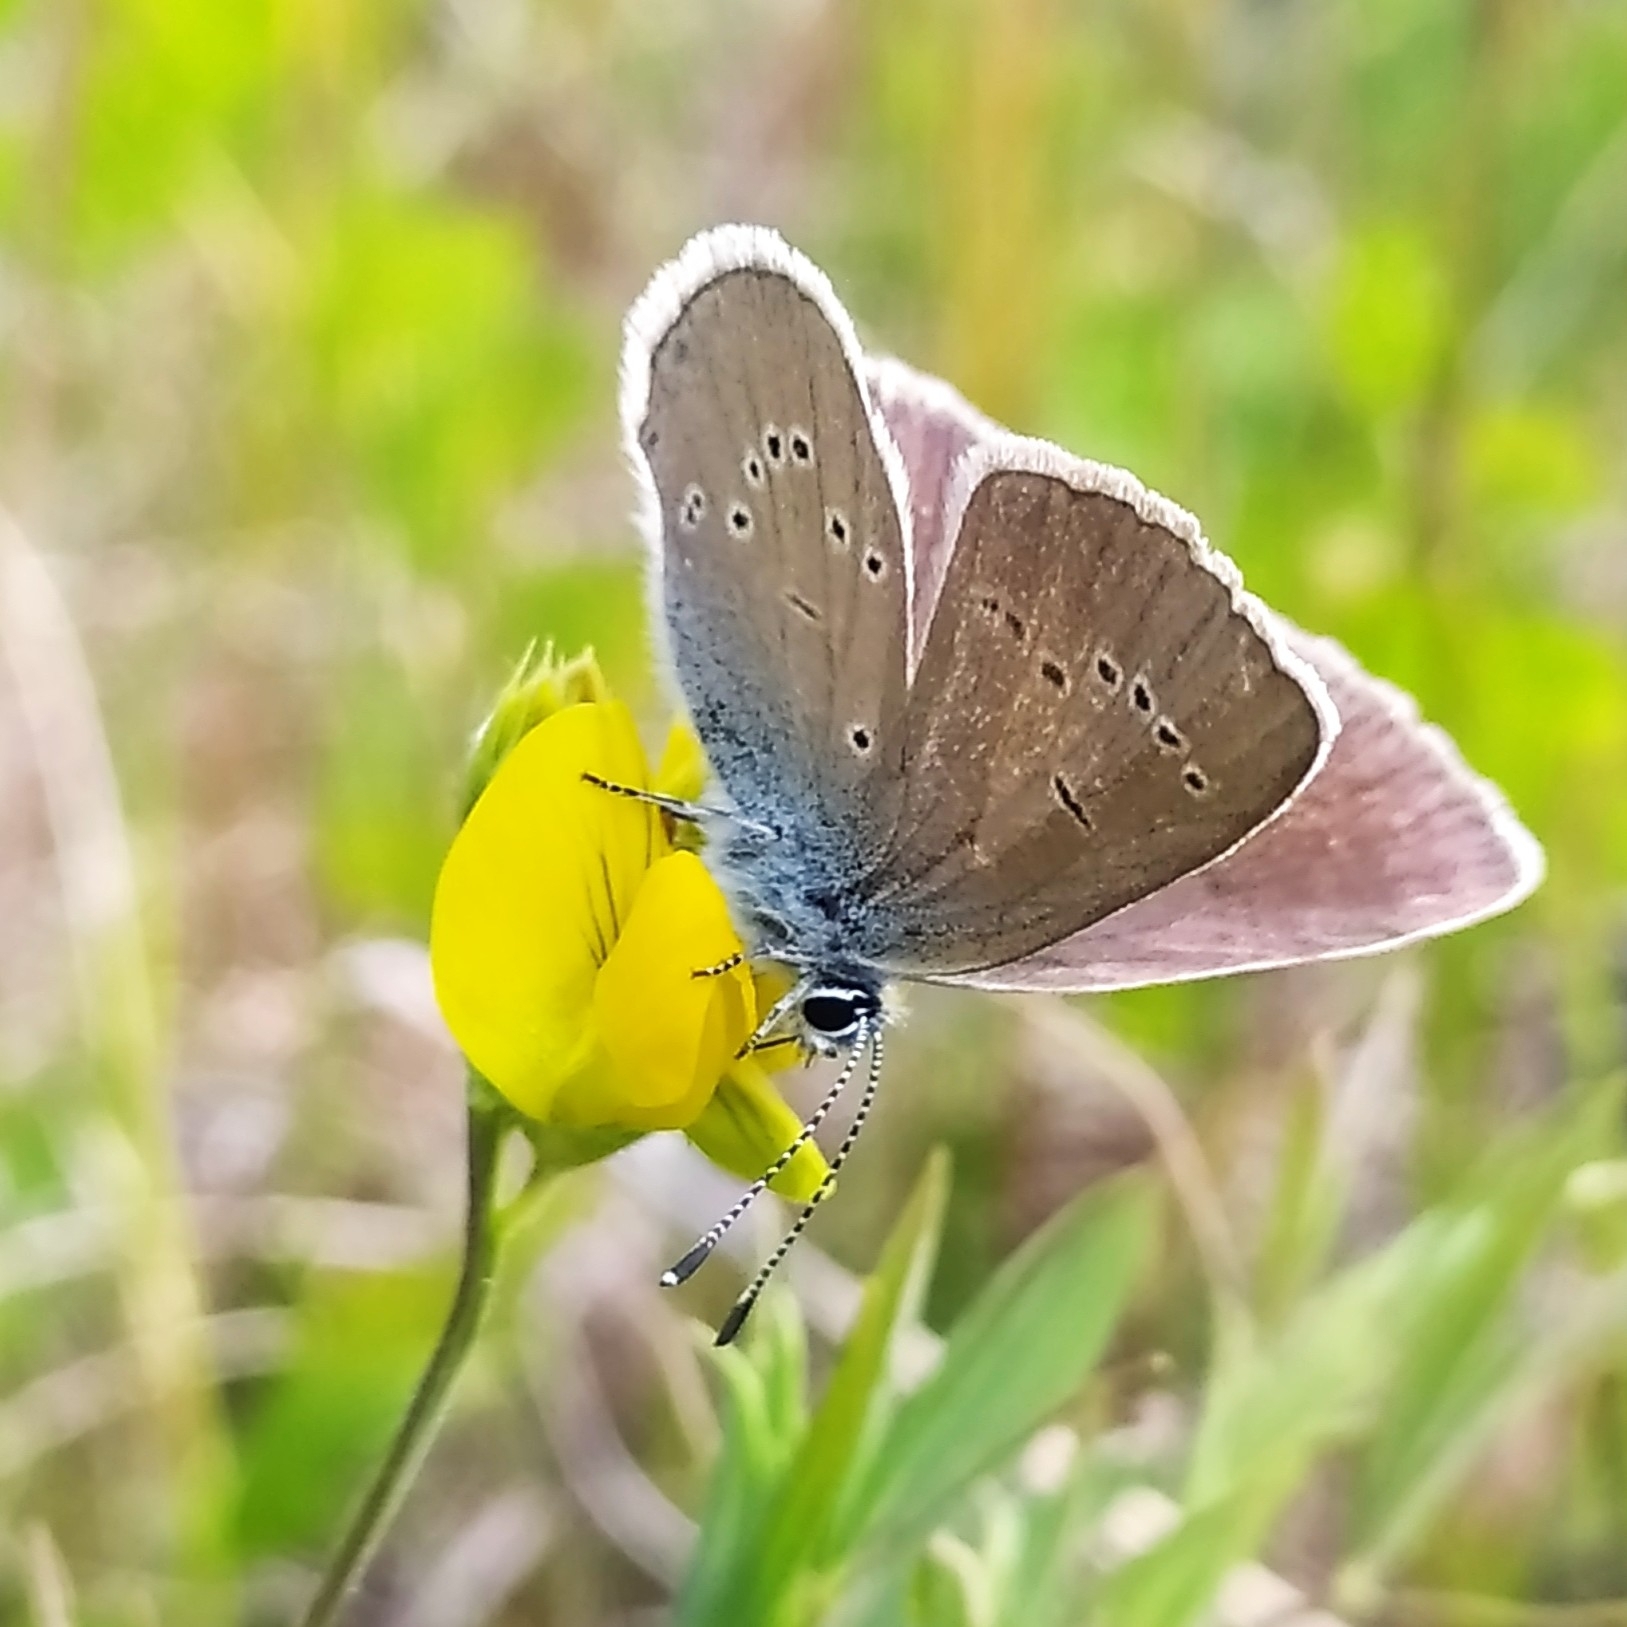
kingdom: Animalia
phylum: Arthropoda
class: Insecta
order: Lepidoptera
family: Lycaenidae
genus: Cyaniris
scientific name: Cyaniris semiargus
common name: Mazarine blue
